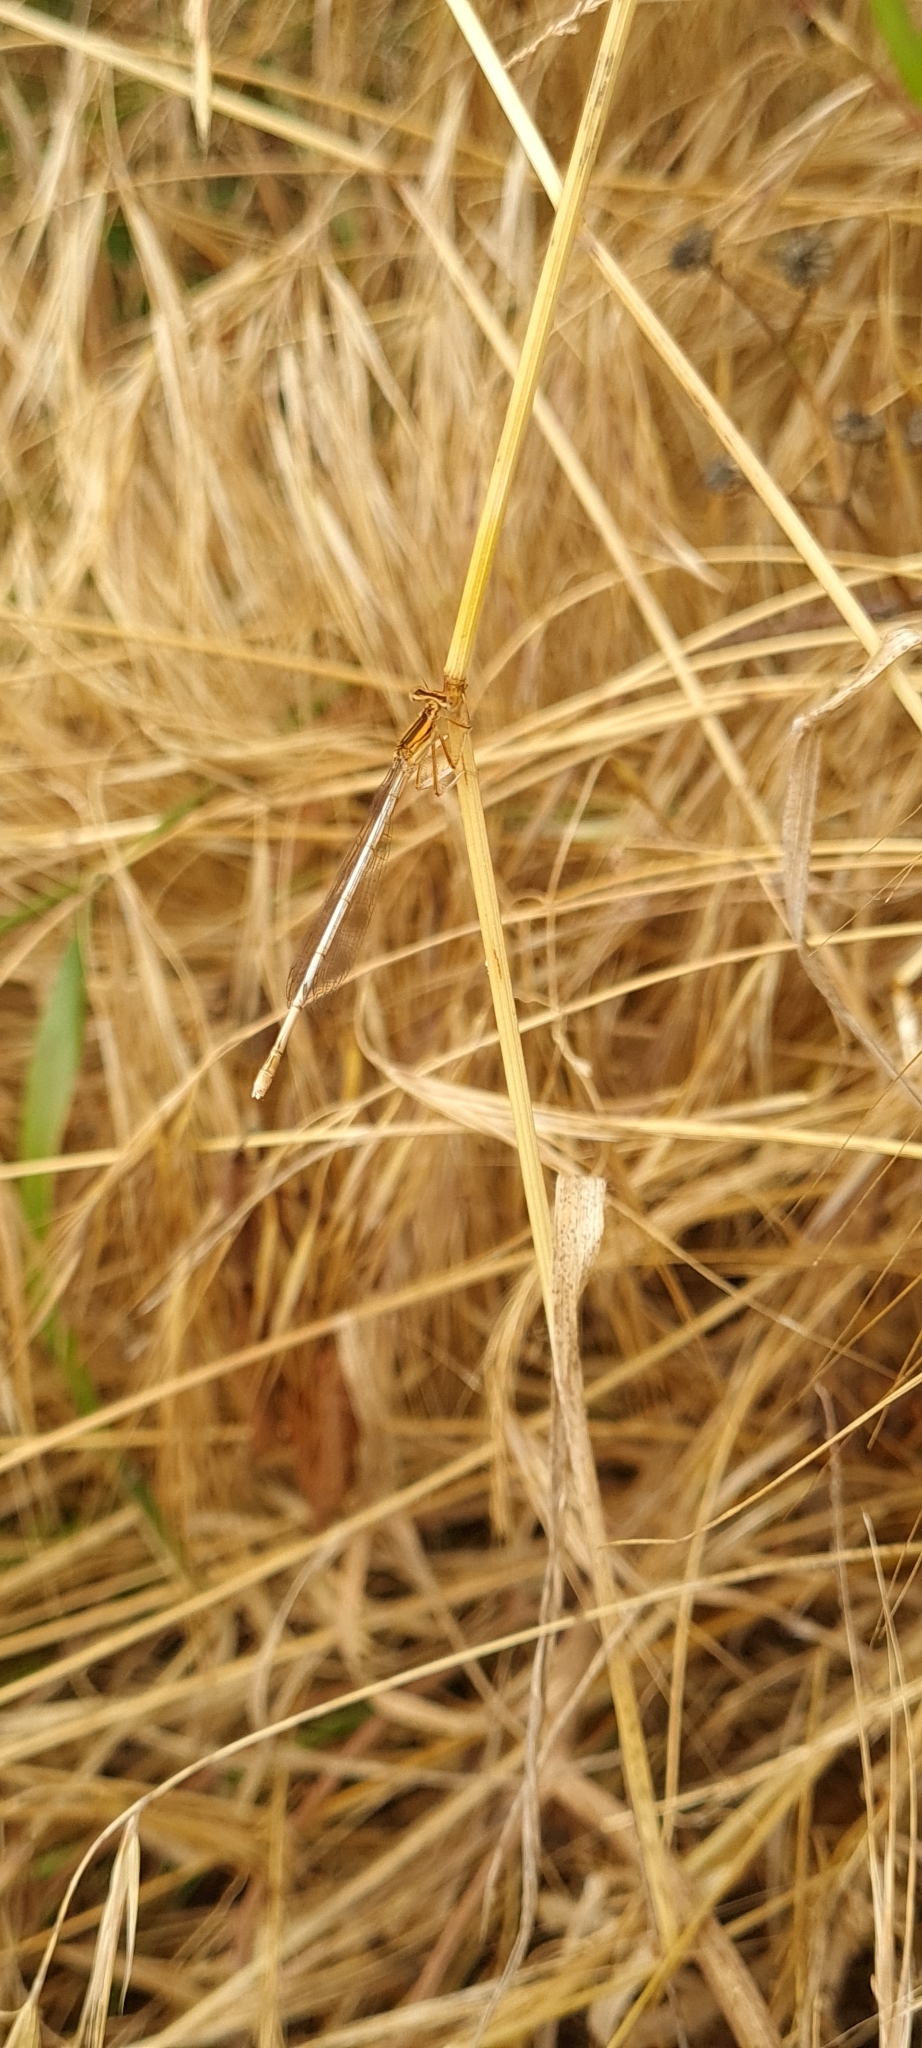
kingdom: Animalia
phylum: Arthropoda
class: Insecta
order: Odonata
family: Platycnemididae
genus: Platycnemis
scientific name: Platycnemis latipes
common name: White featherleg
